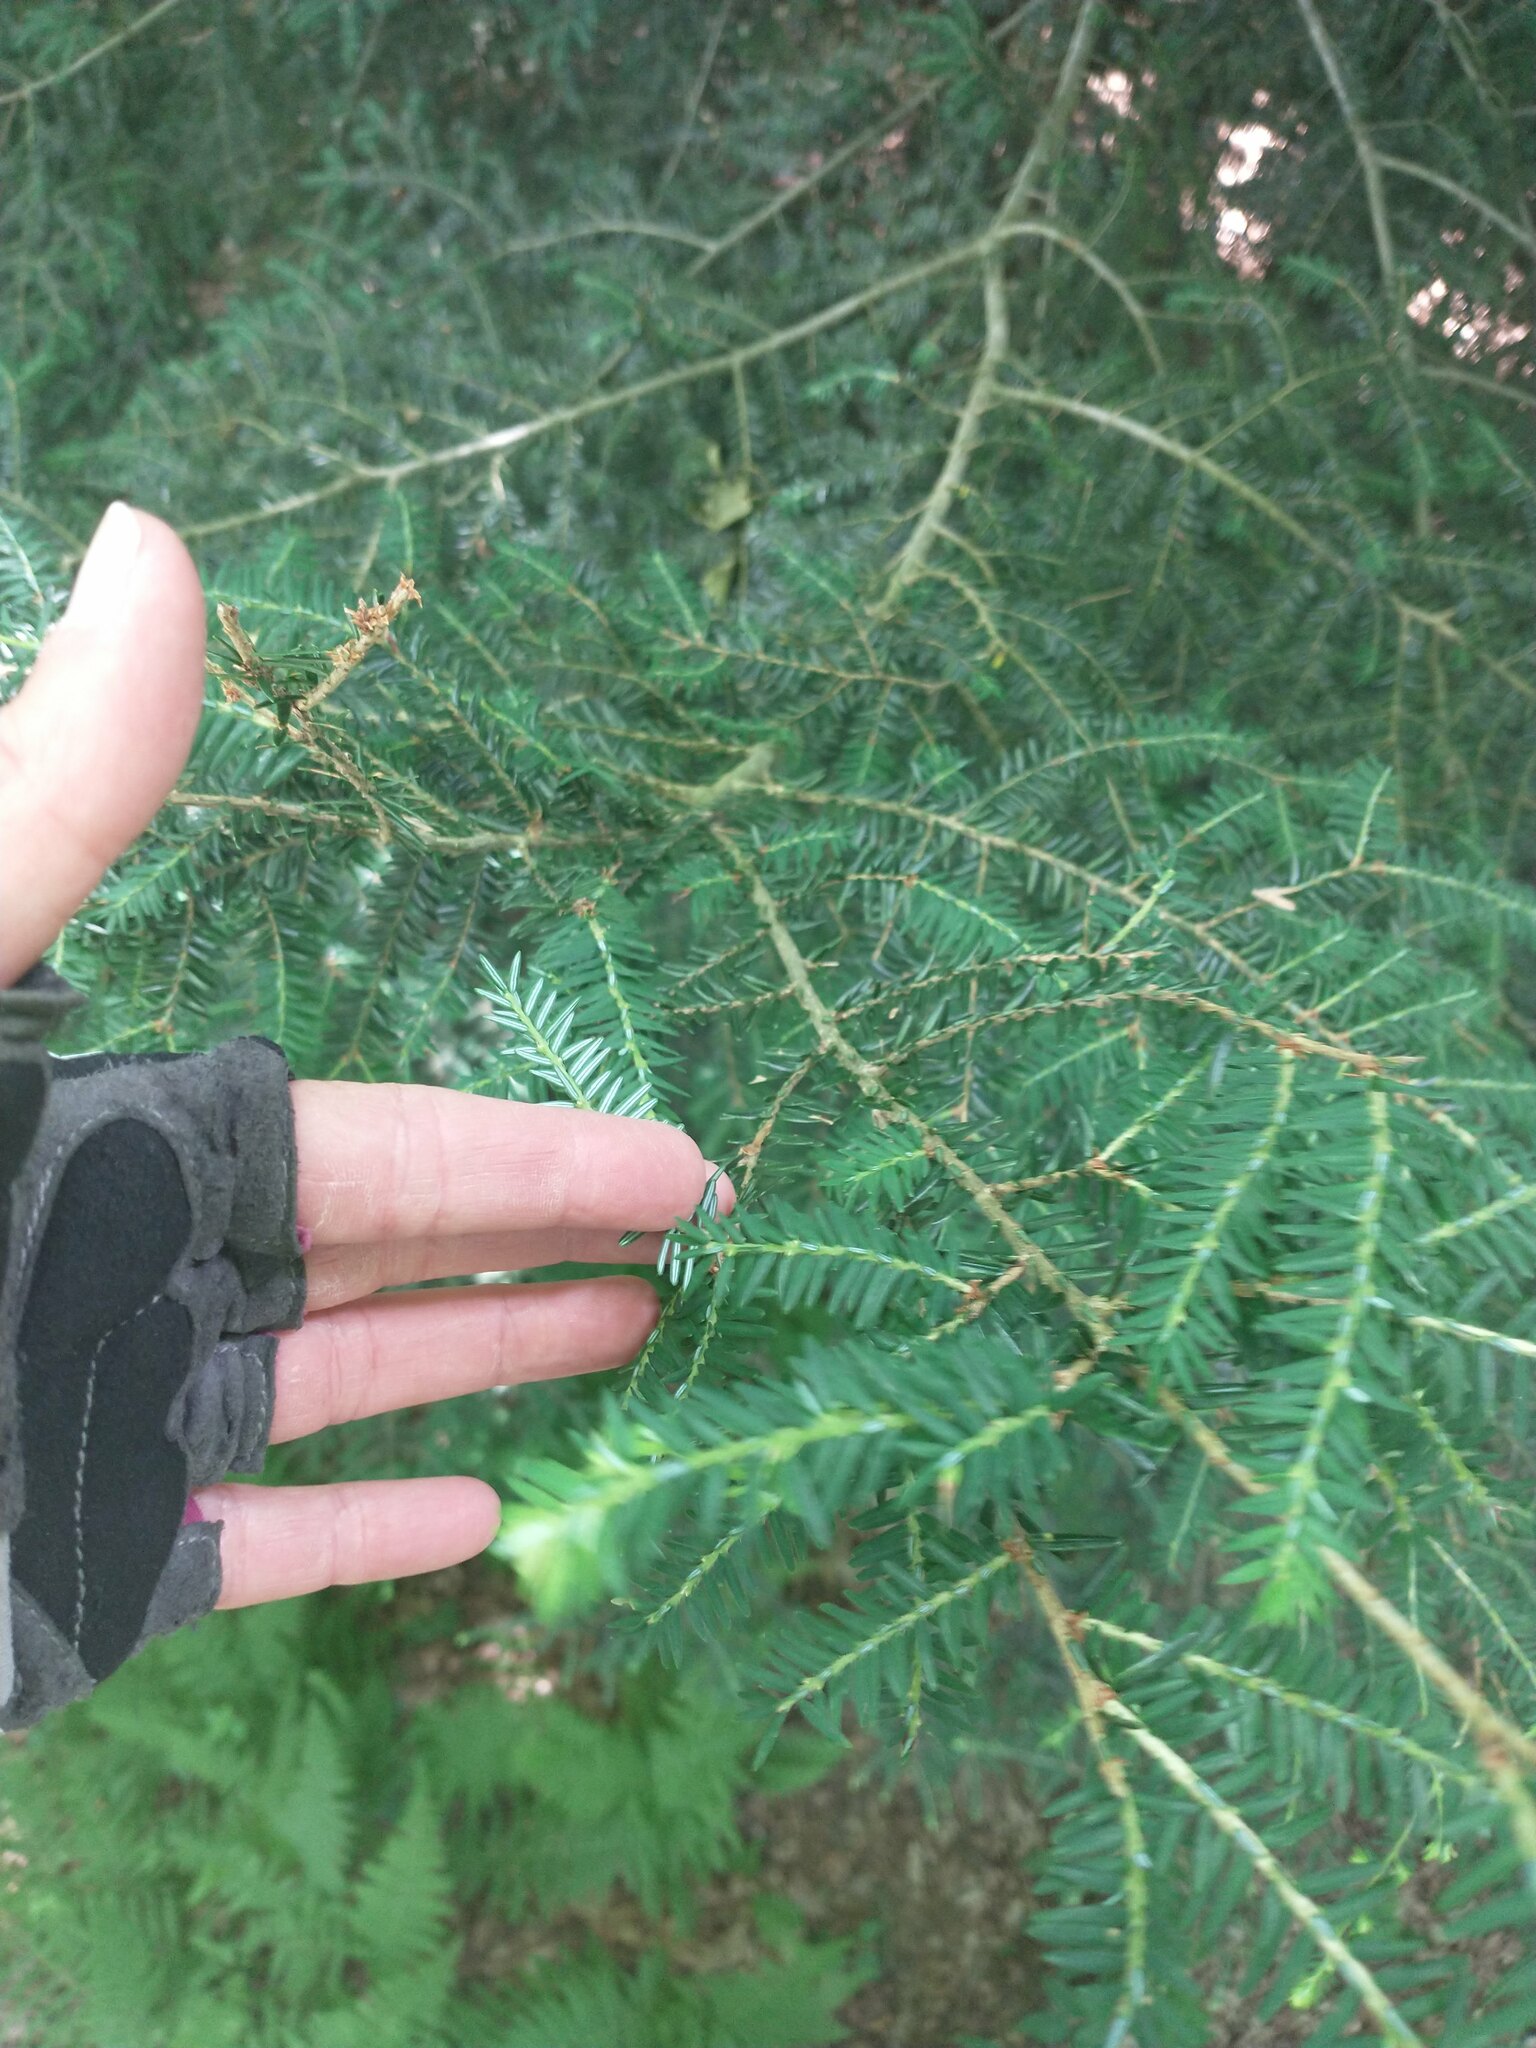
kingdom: Plantae
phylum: Tracheophyta
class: Pinopsida
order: Pinales
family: Pinaceae
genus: Tsuga
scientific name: Tsuga canadensis
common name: Eastern hemlock
